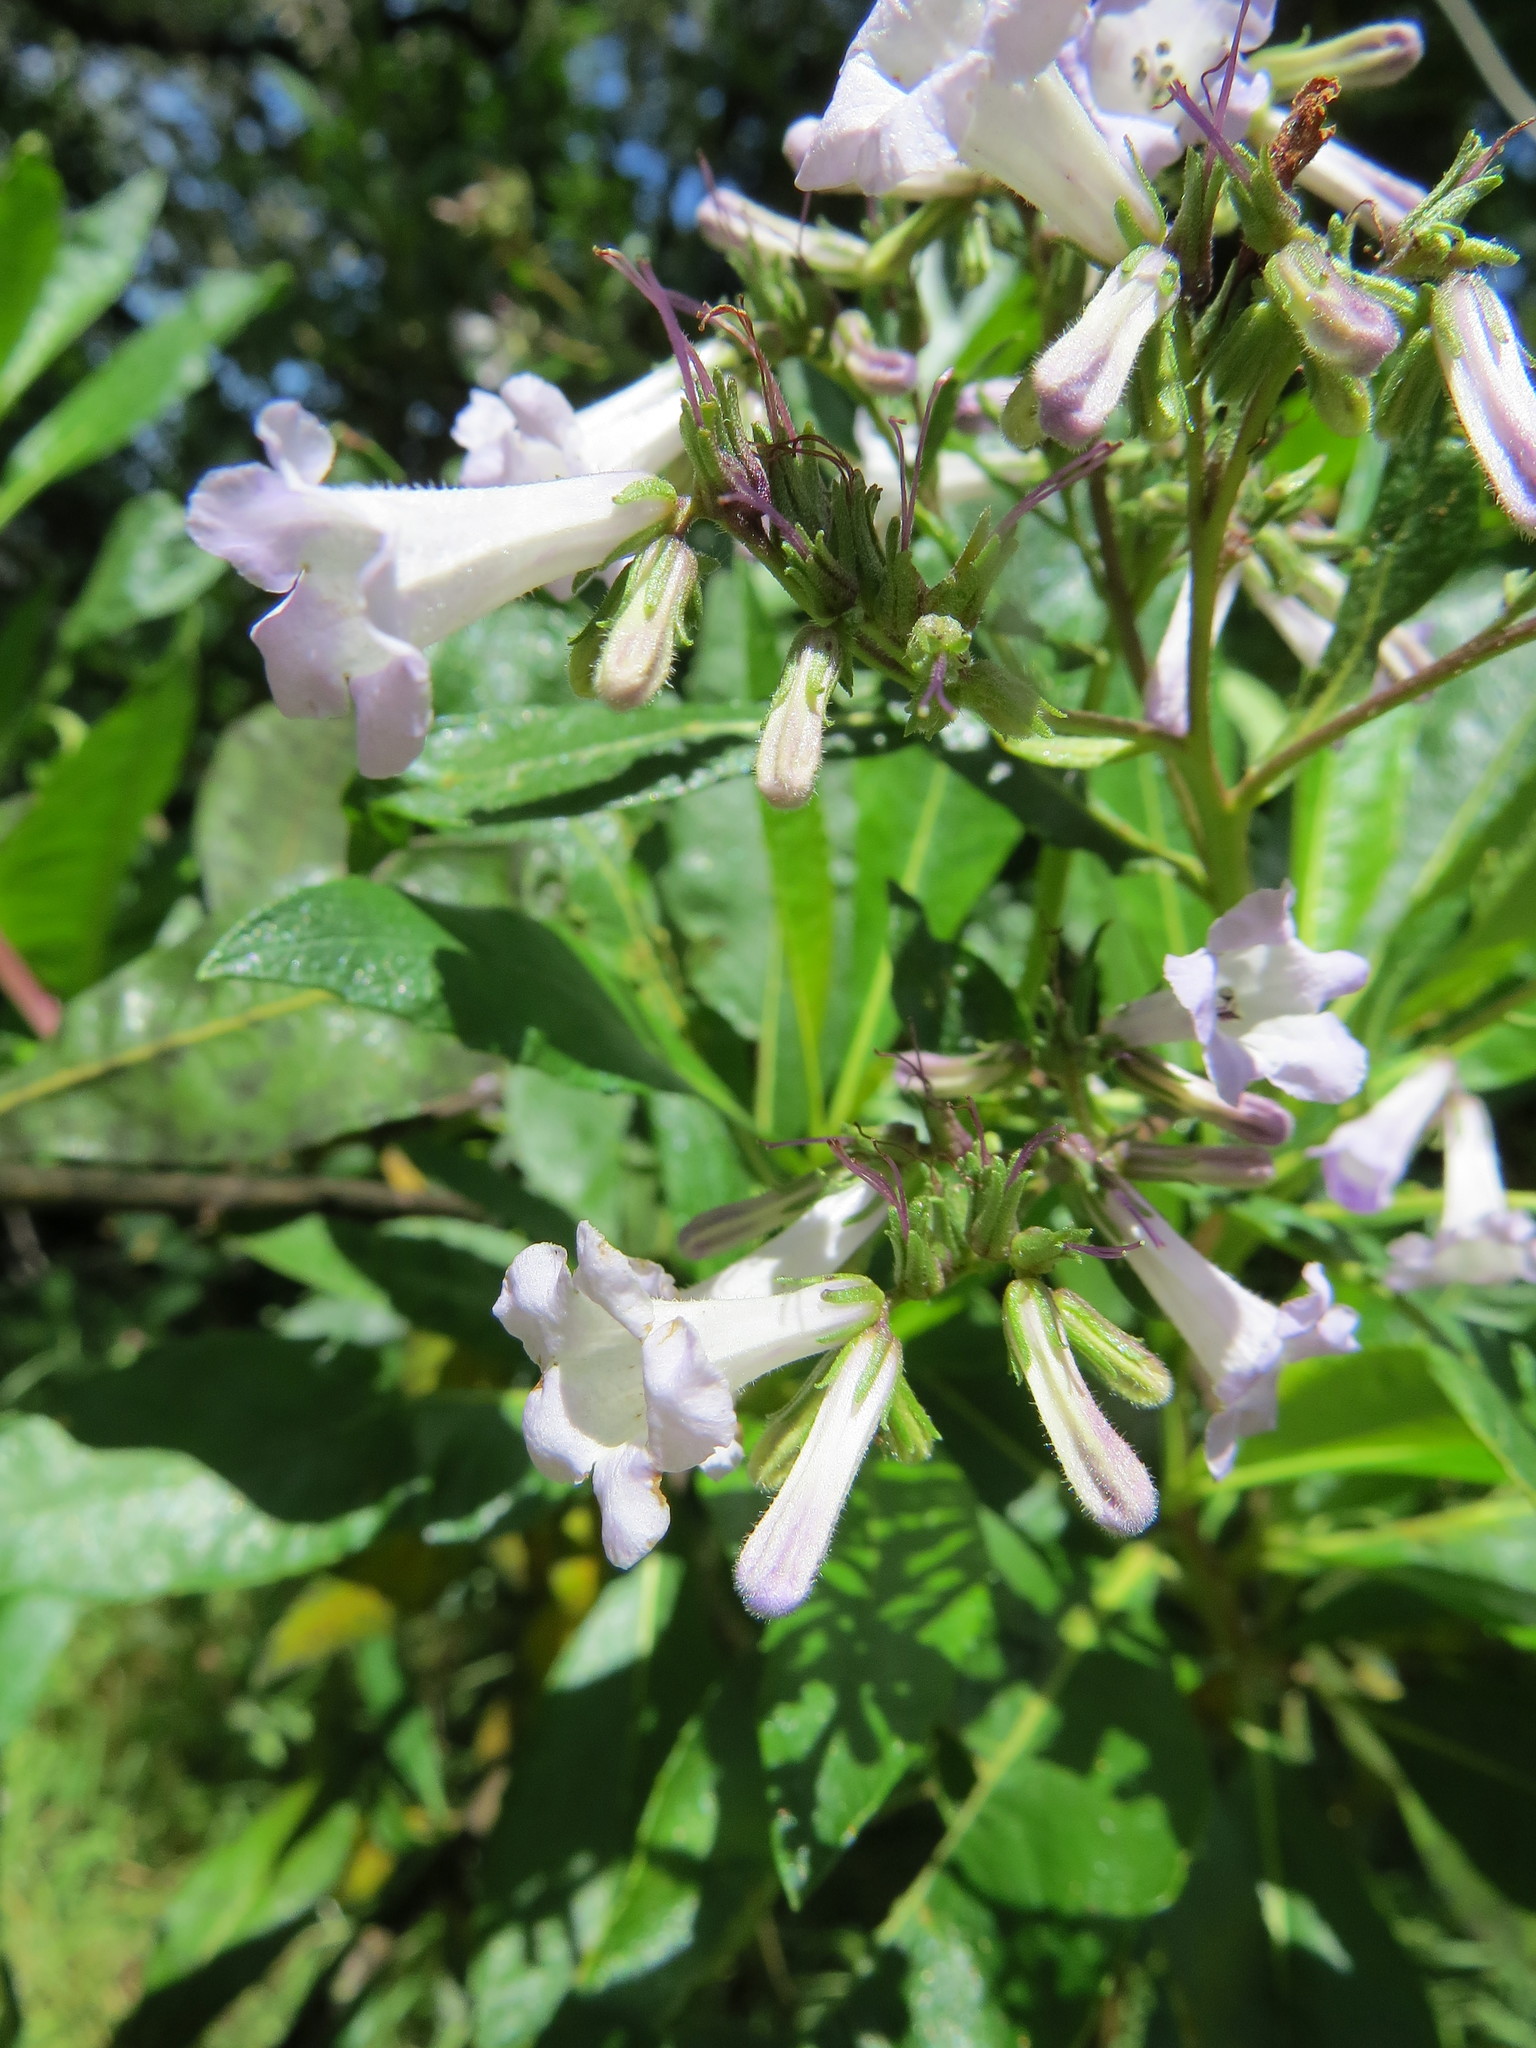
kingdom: Plantae
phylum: Tracheophyta
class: Magnoliopsida
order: Boraginales
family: Namaceae
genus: Eriodictyon
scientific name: Eriodictyon californicum
